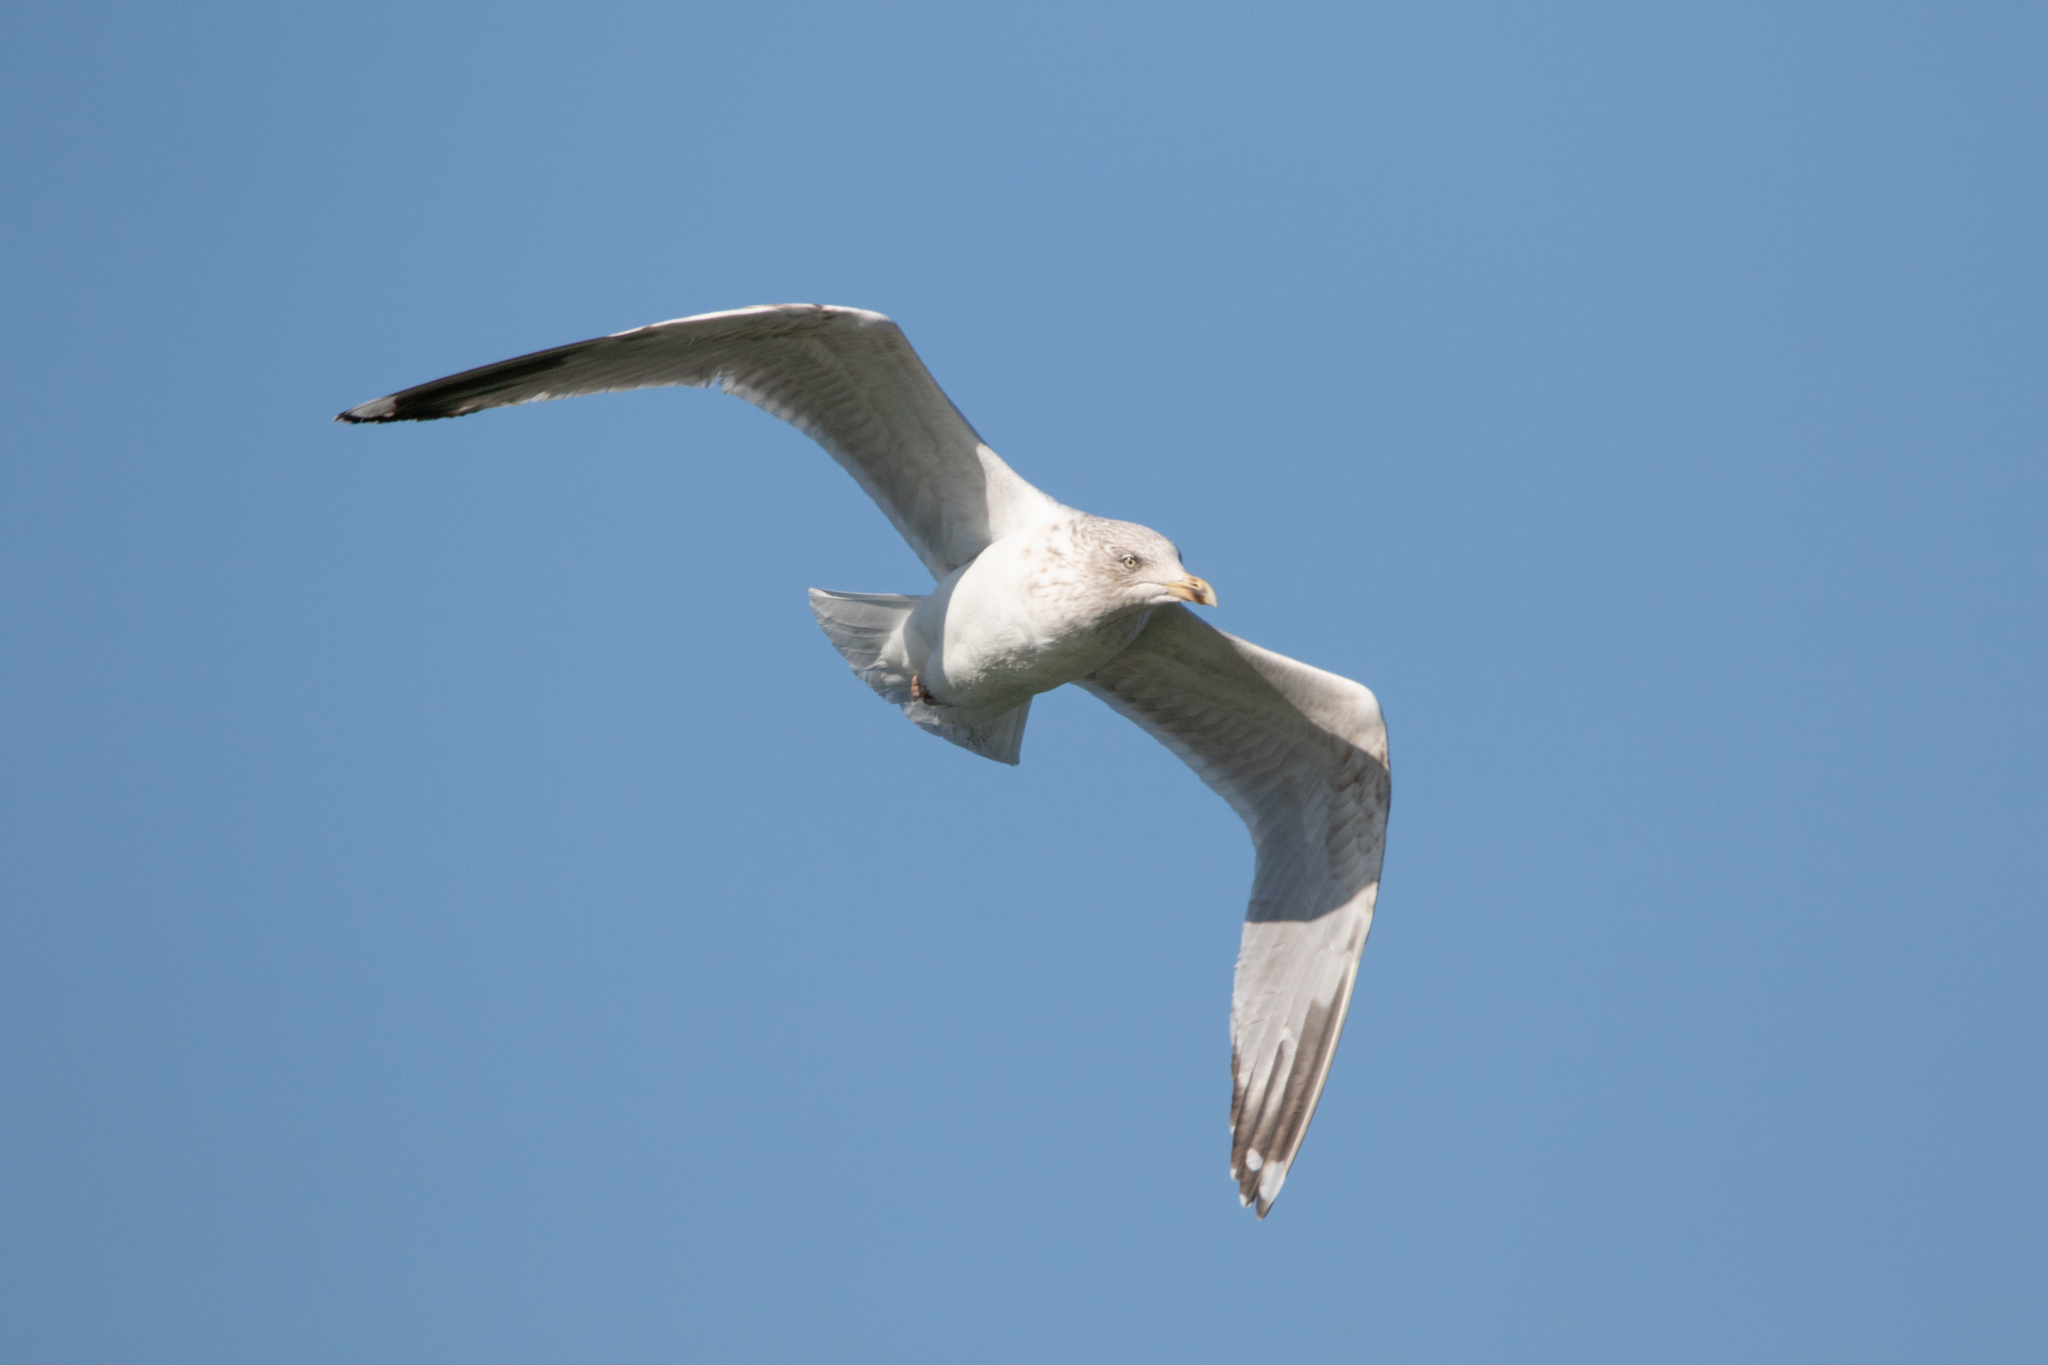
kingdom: Animalia
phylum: Chordata
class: Aves
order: Charadriiformes
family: Laridae
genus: Larus
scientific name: Larus argentatus
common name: Herring gull
